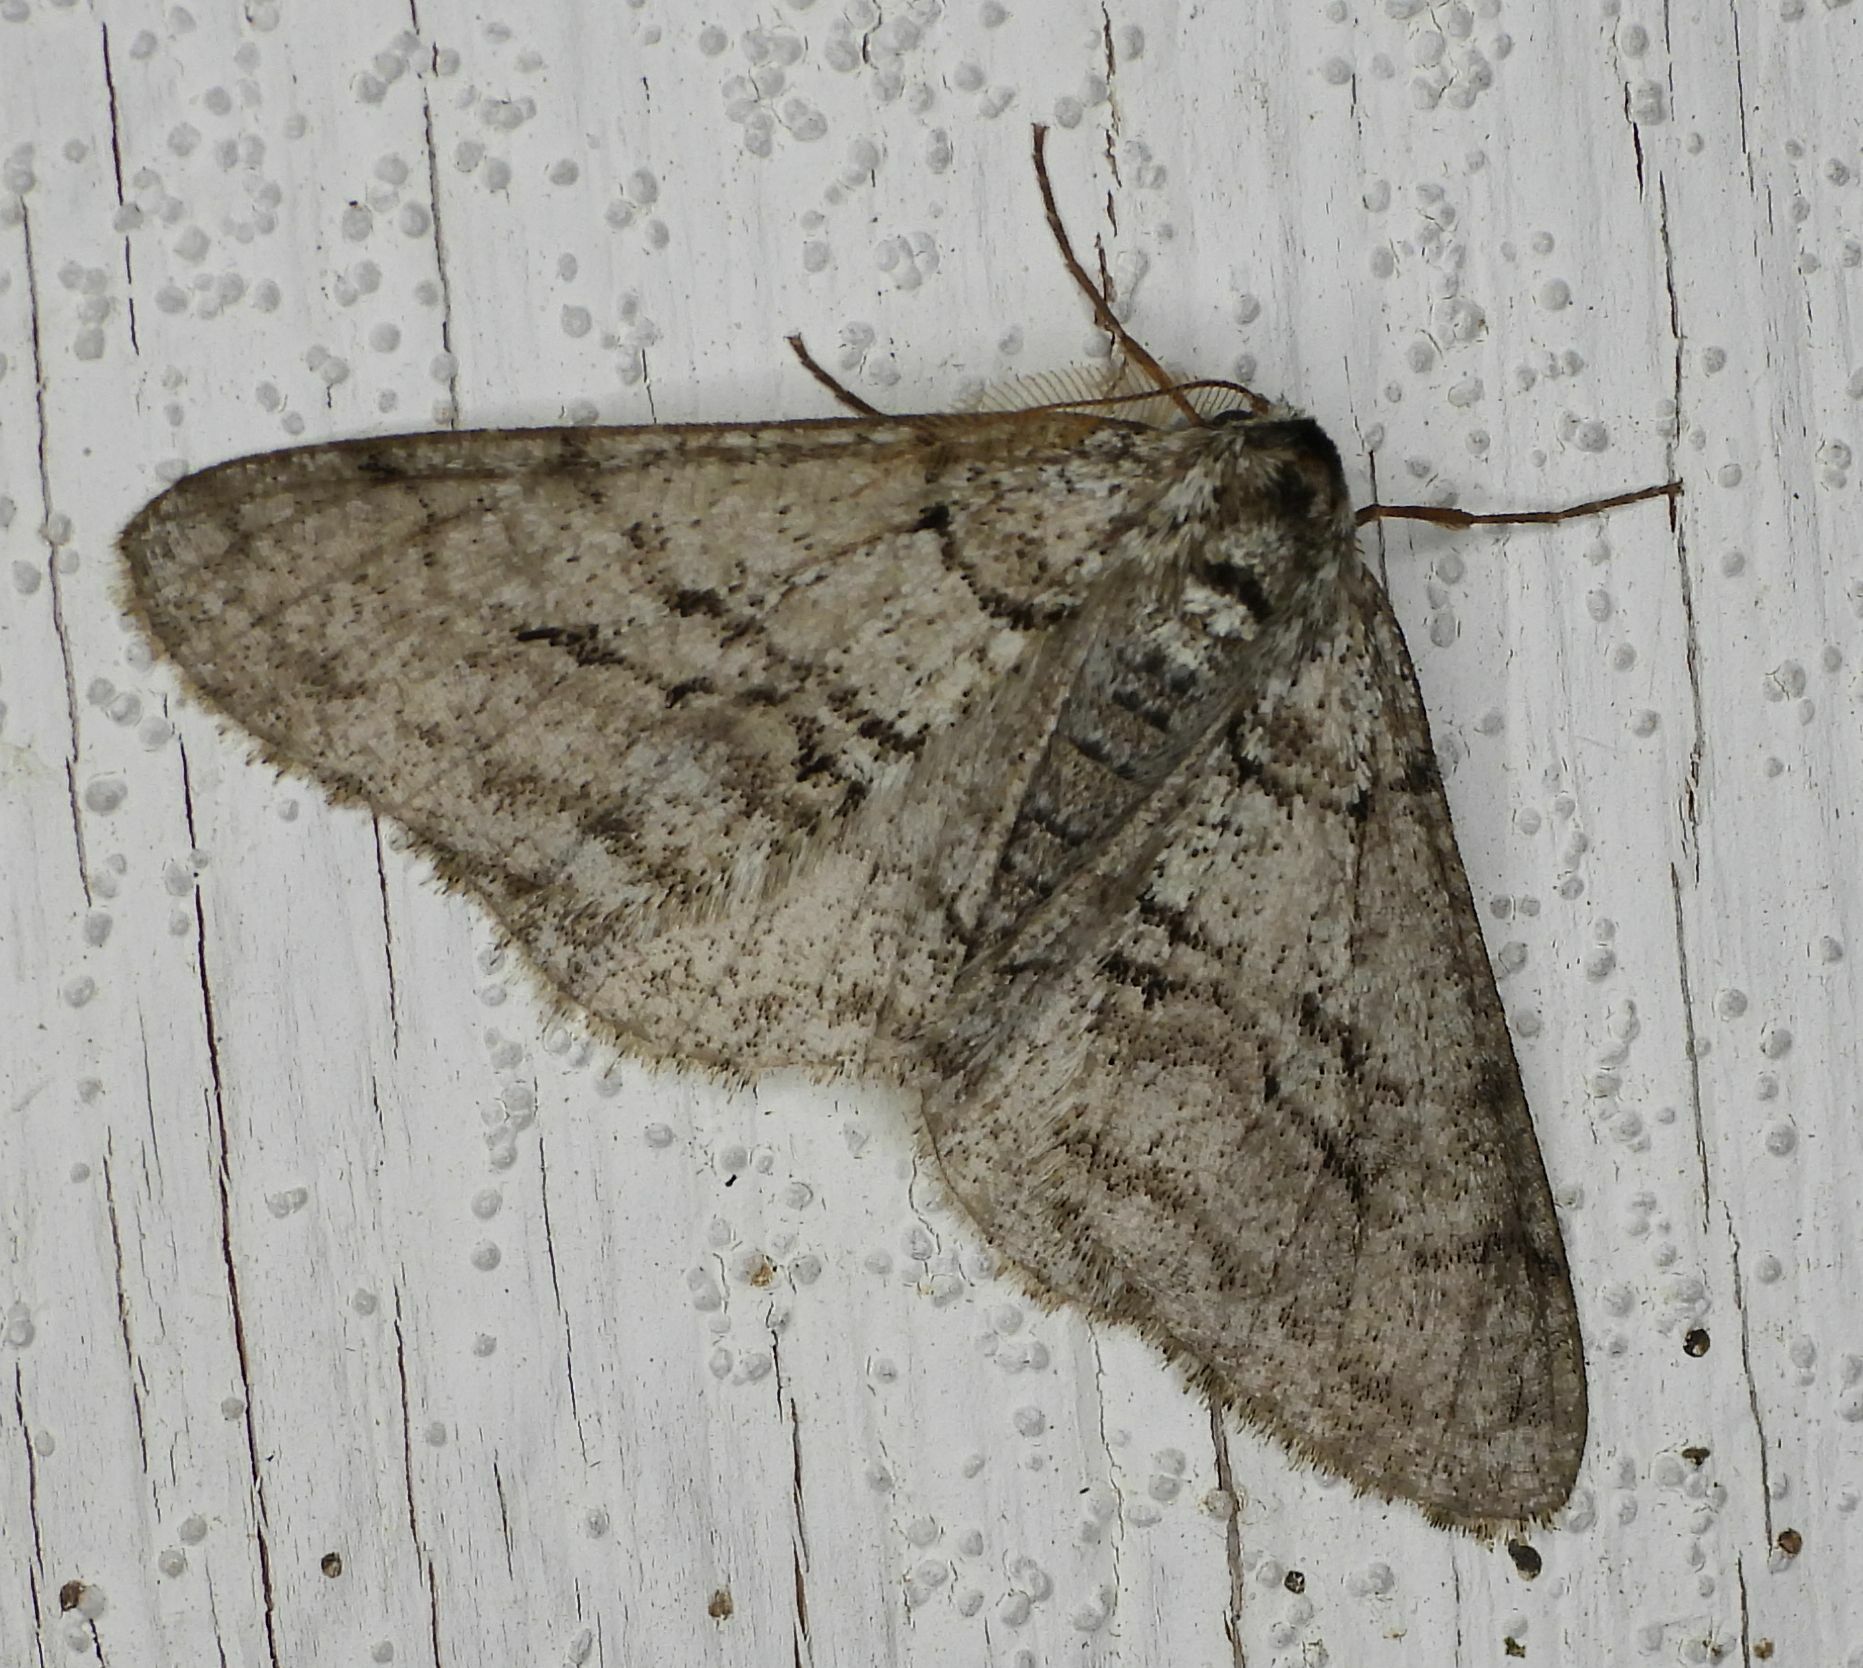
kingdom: Animalia
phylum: Arthropoda
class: Insecta
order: Lepidoptera
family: Geometridae
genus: Phigalia
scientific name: Phigalia titea
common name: Spiny looper
